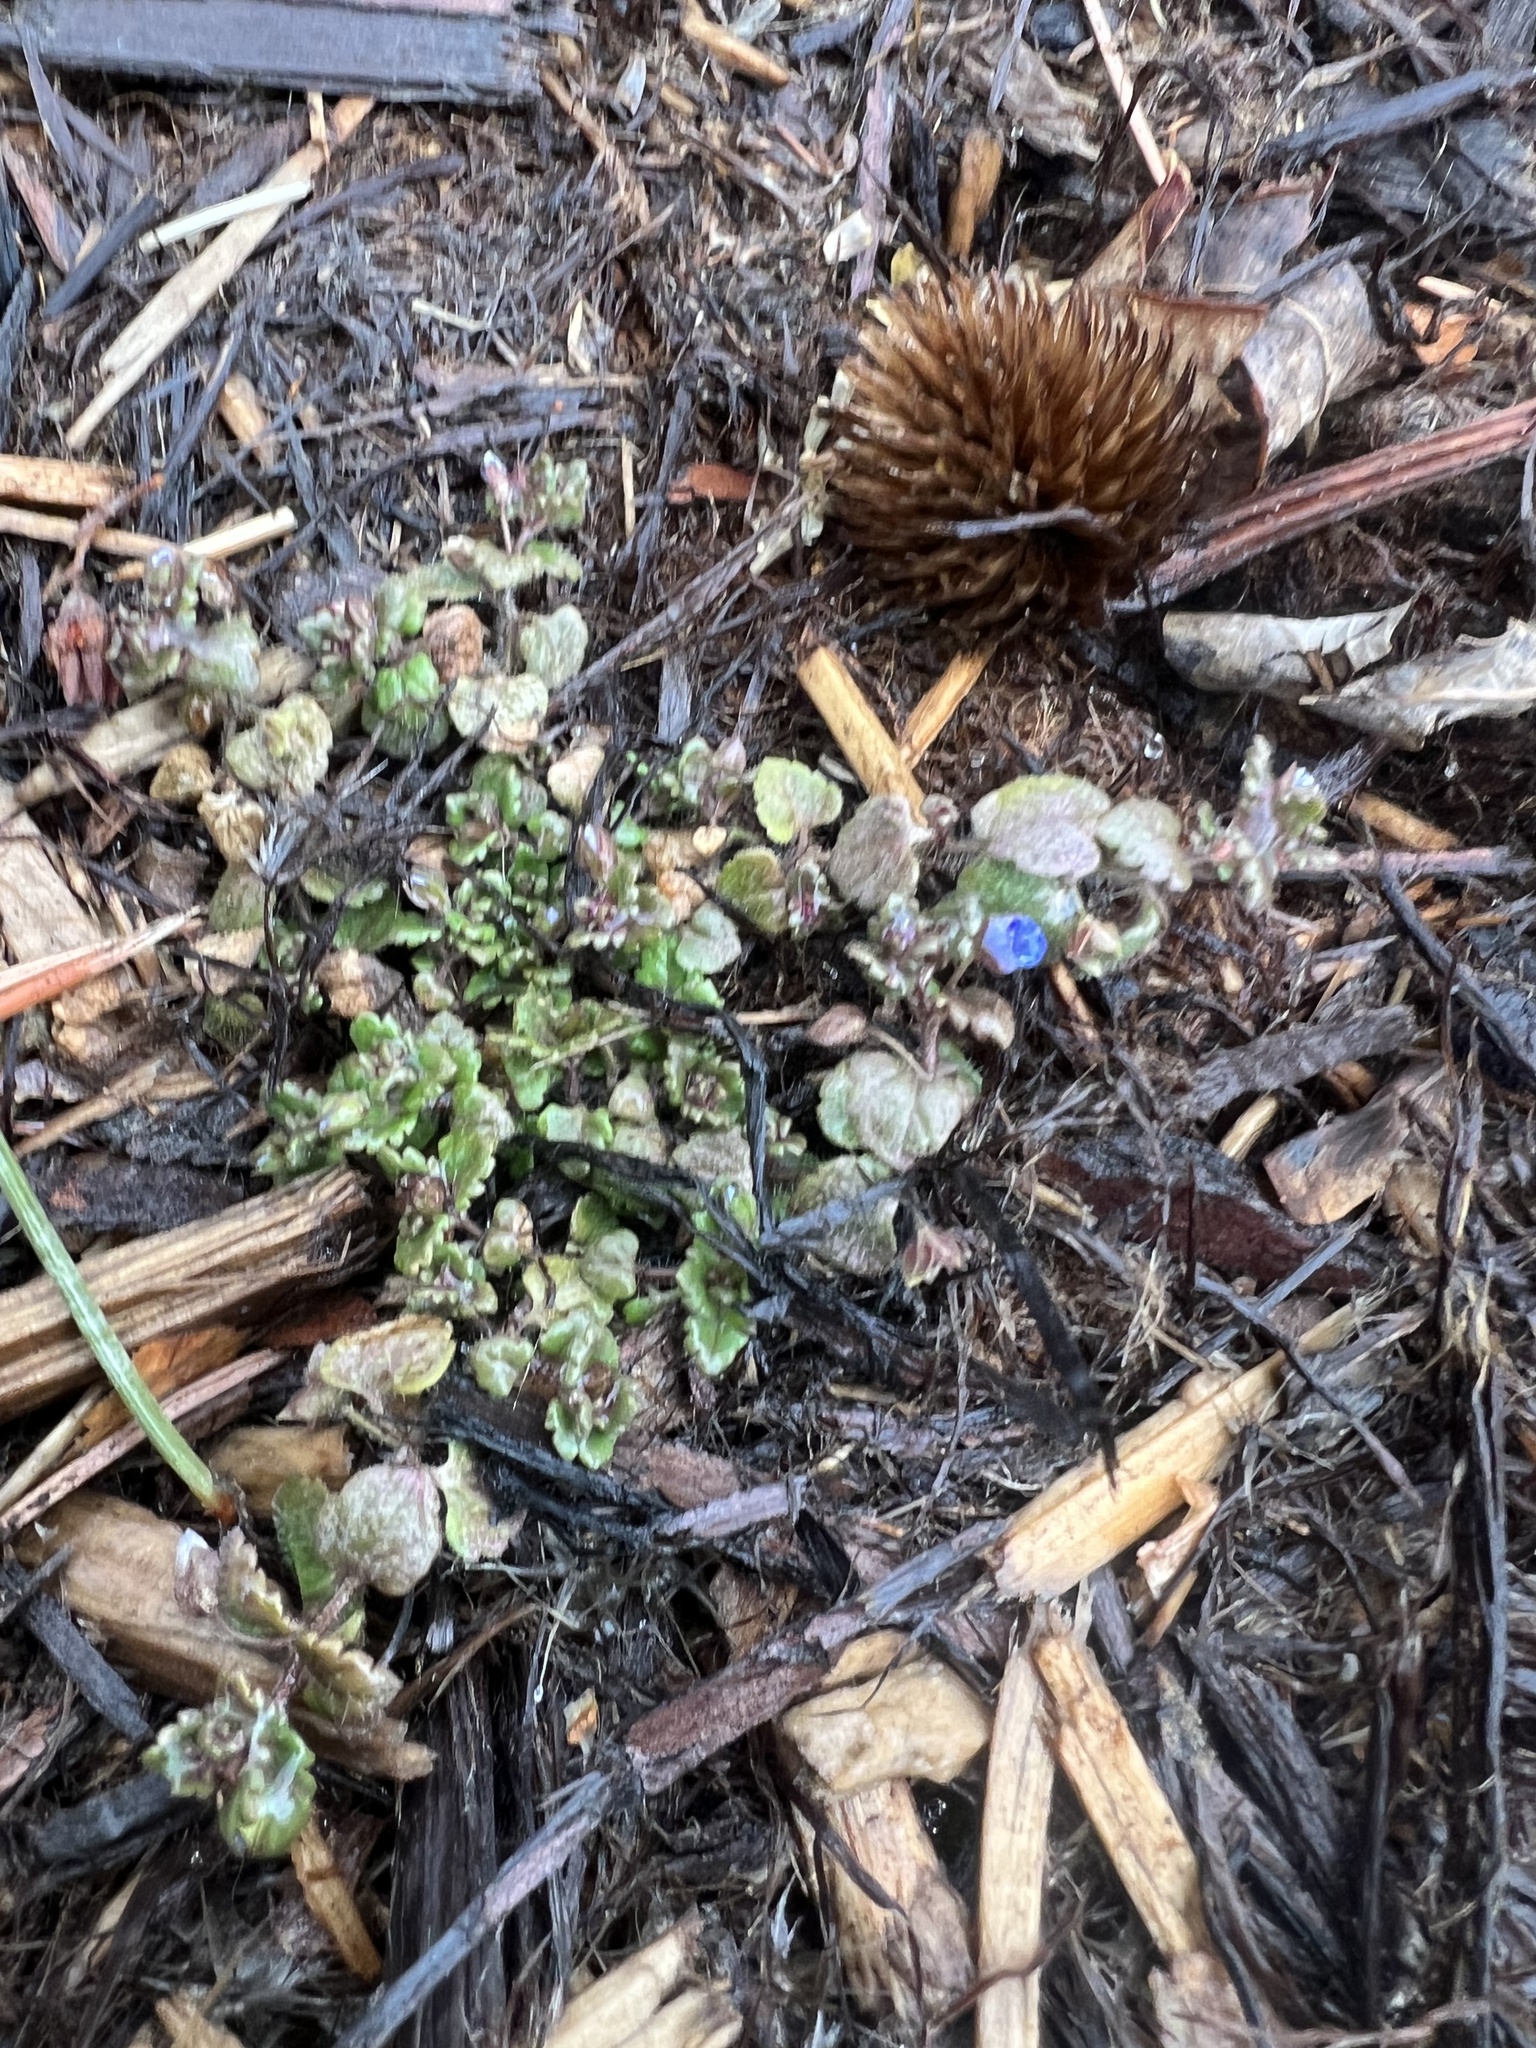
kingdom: Plantae
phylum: Tracheophyta
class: Magnoliopsida
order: Lamiales
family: Plantaginaceae
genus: Veronica
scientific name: Veronica polita
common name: Grey field-speedwell
